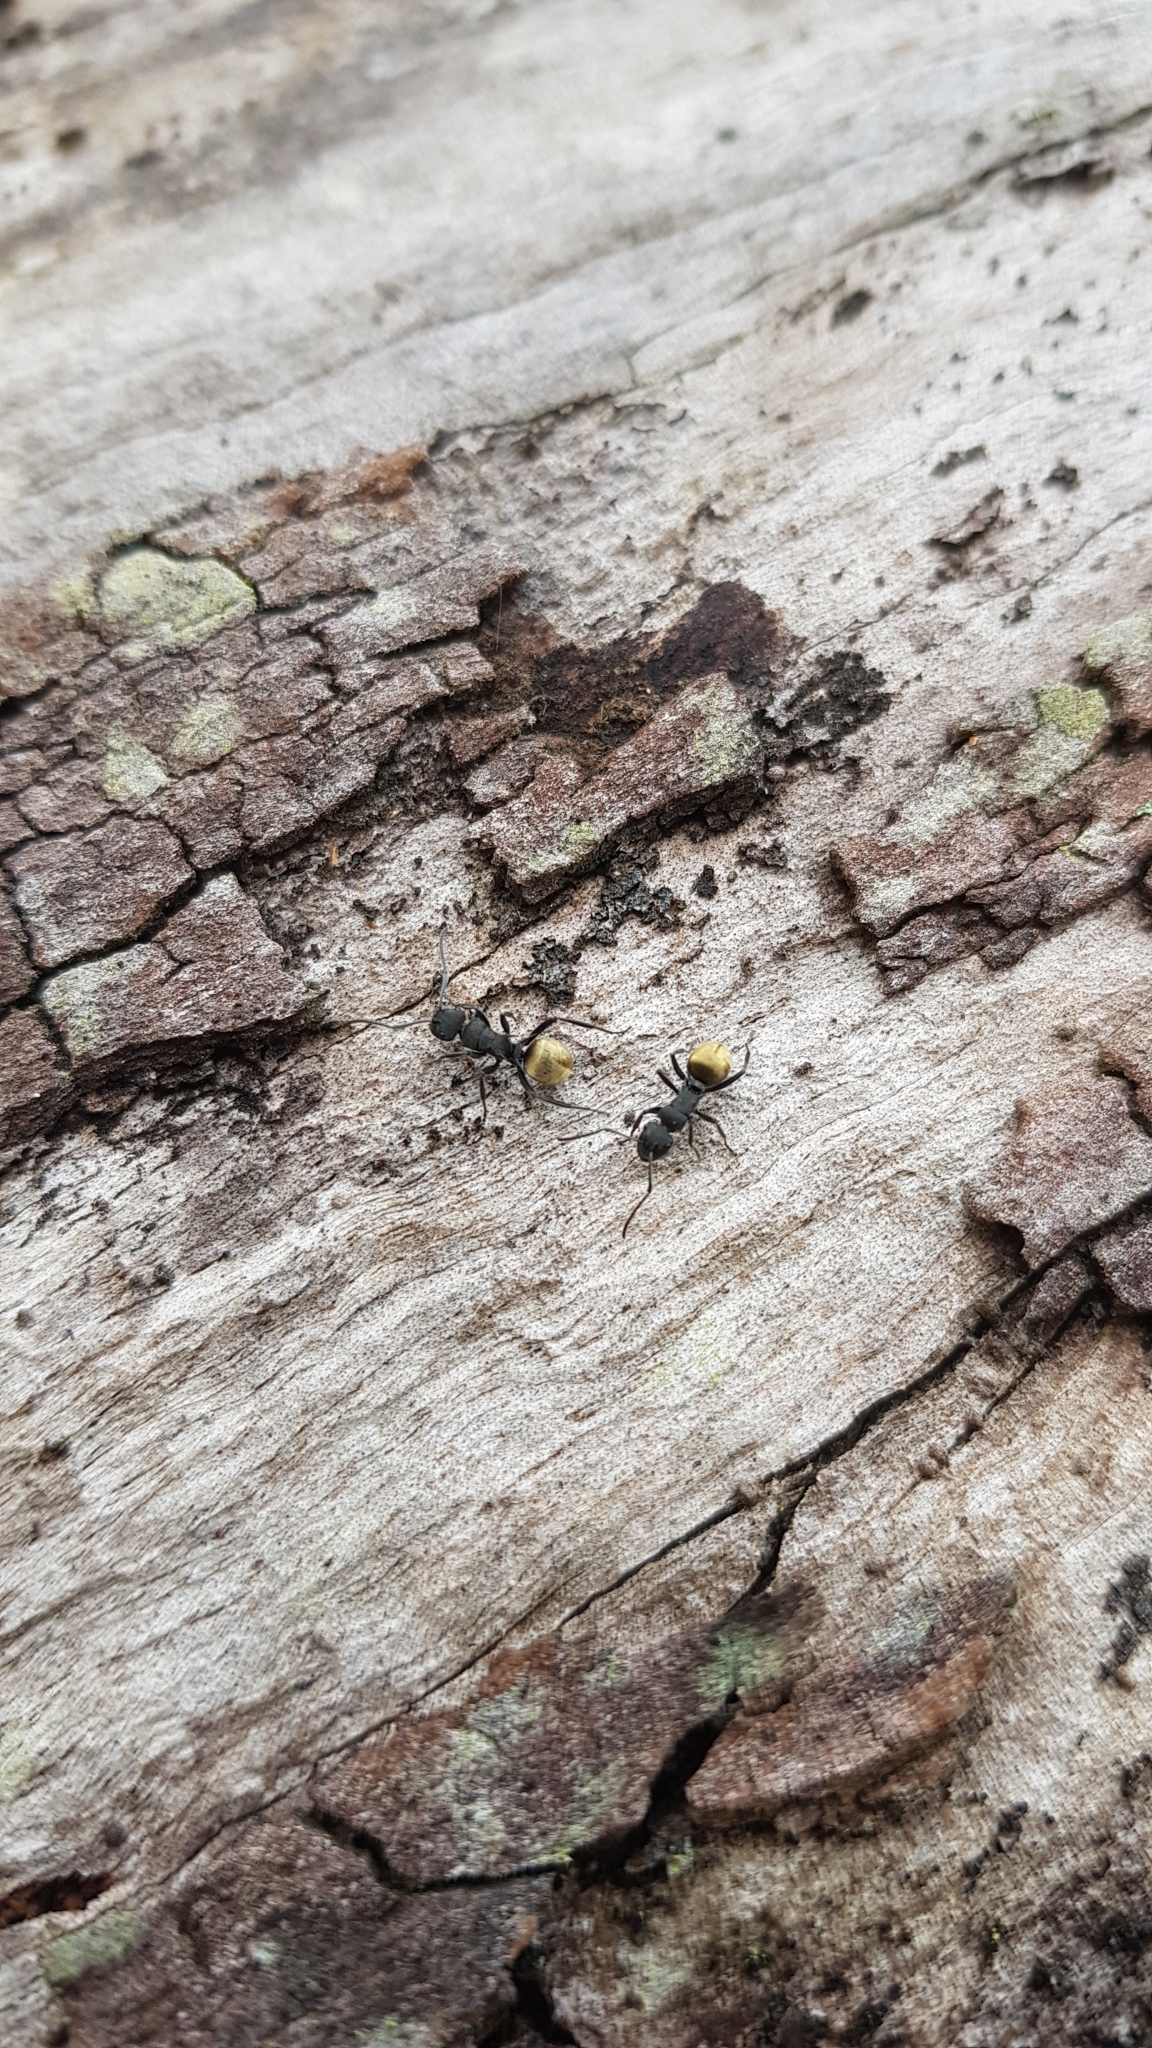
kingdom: Animalia
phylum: Arthropoda
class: Insecta
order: Hymenoptera
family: Formicidae
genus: Polyrhachis
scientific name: Polyrhachis erato
